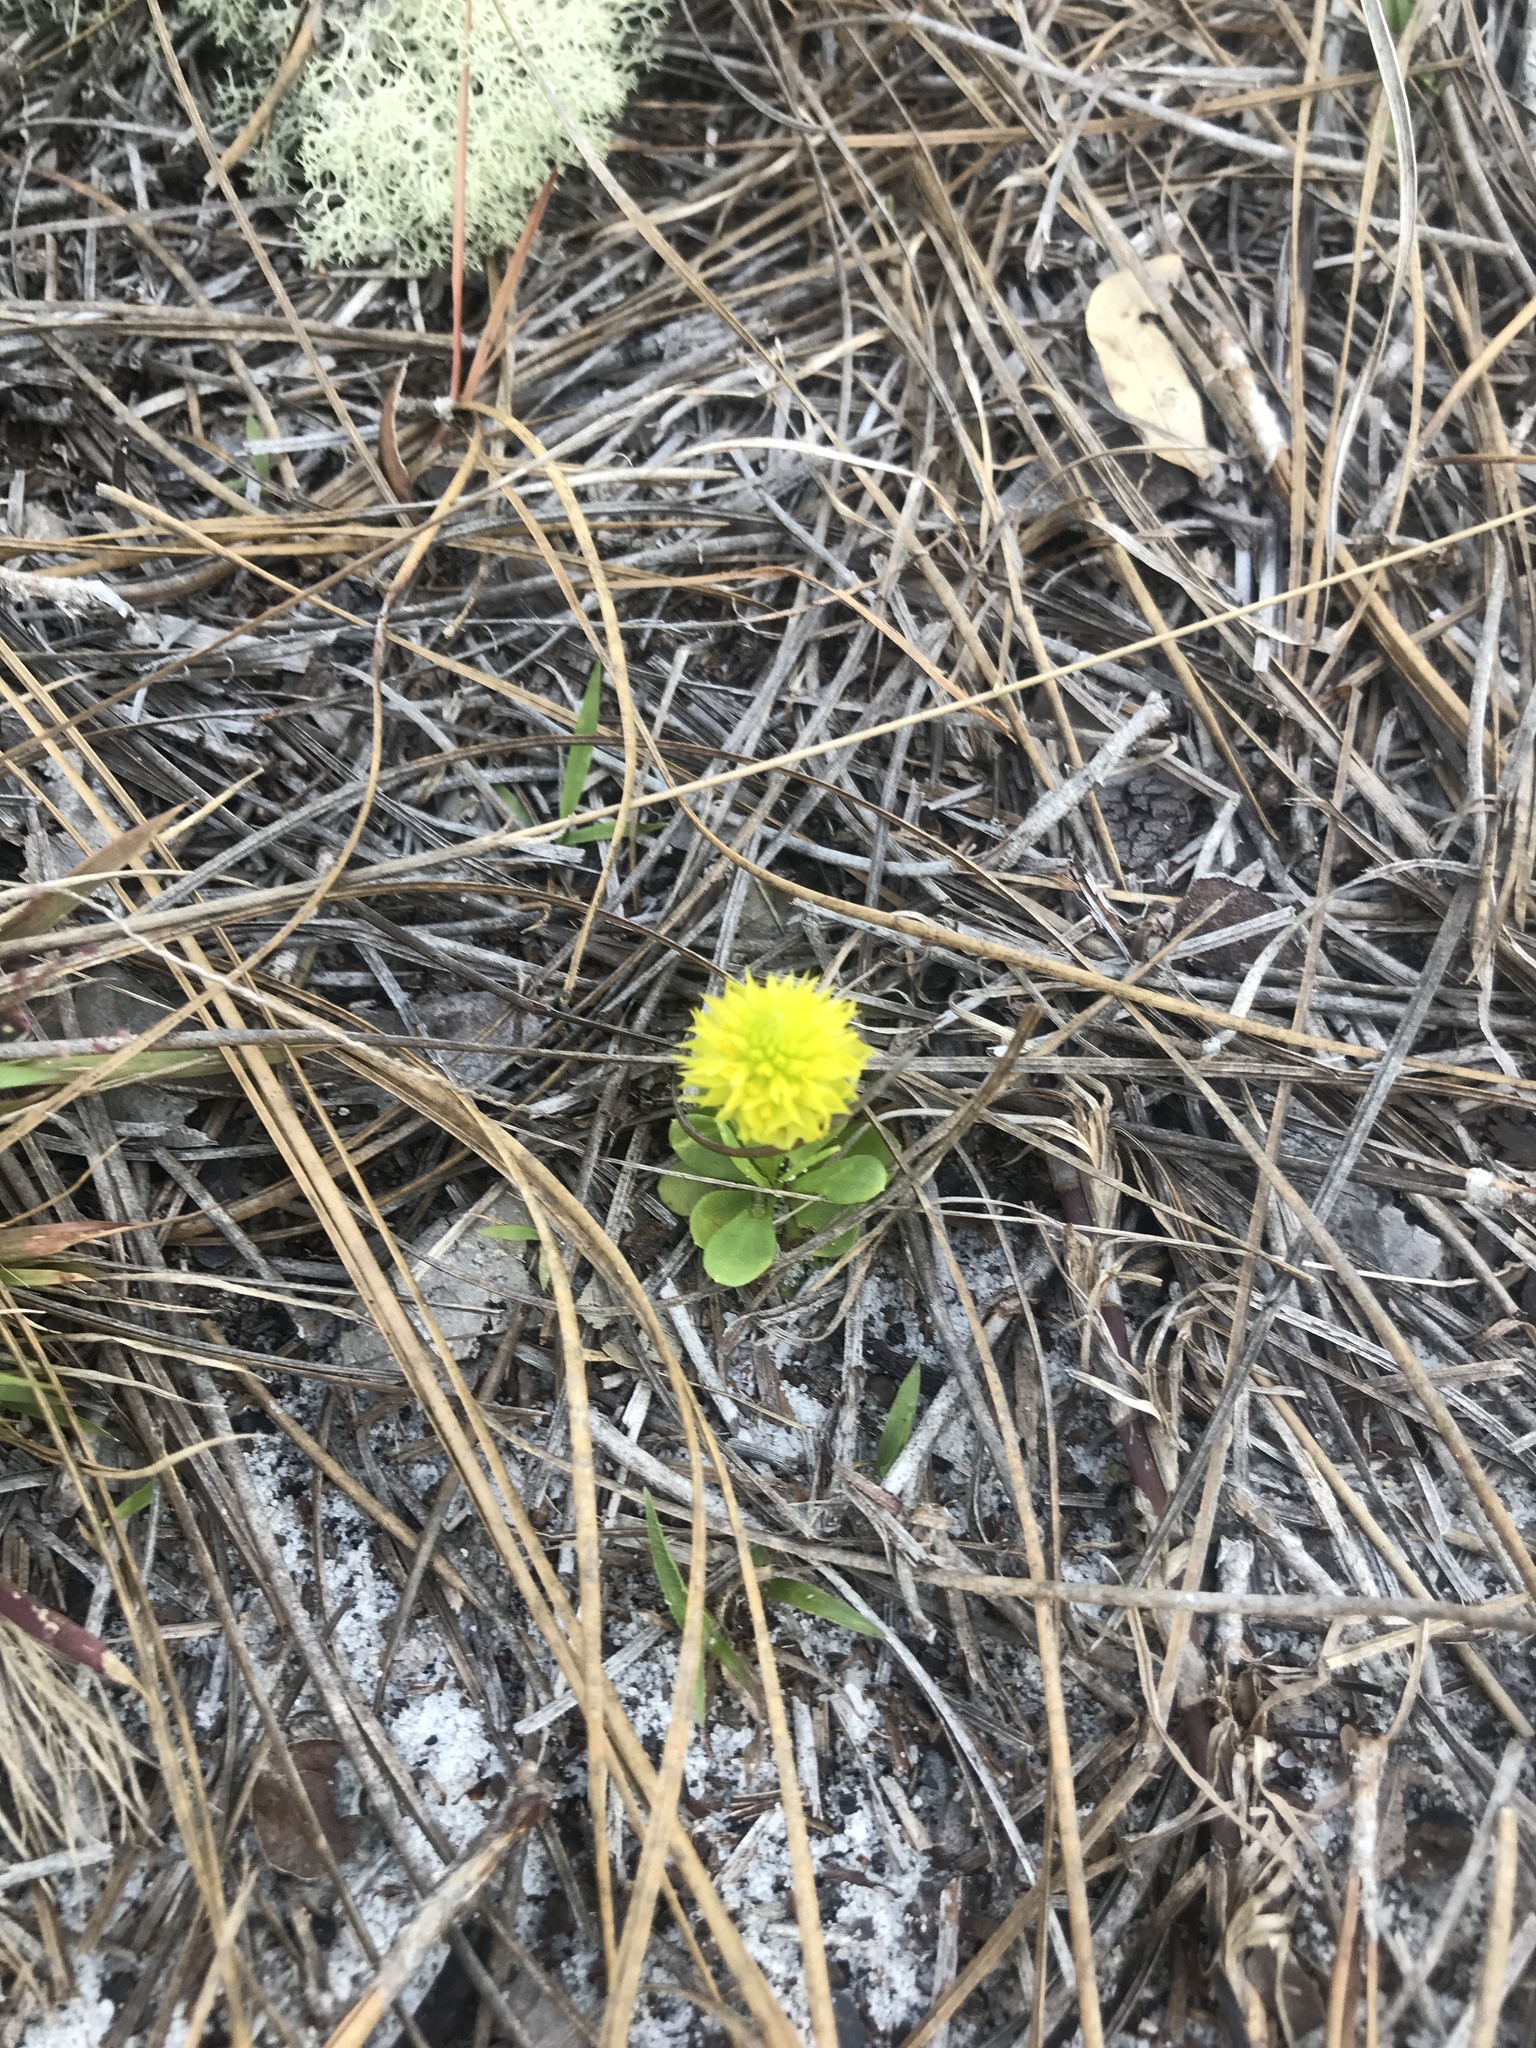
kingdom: Plantae
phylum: Tracheophyta
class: Magnoliopsida
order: Fabales
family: Polygalaceae
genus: Polygala
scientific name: Polygala nana
